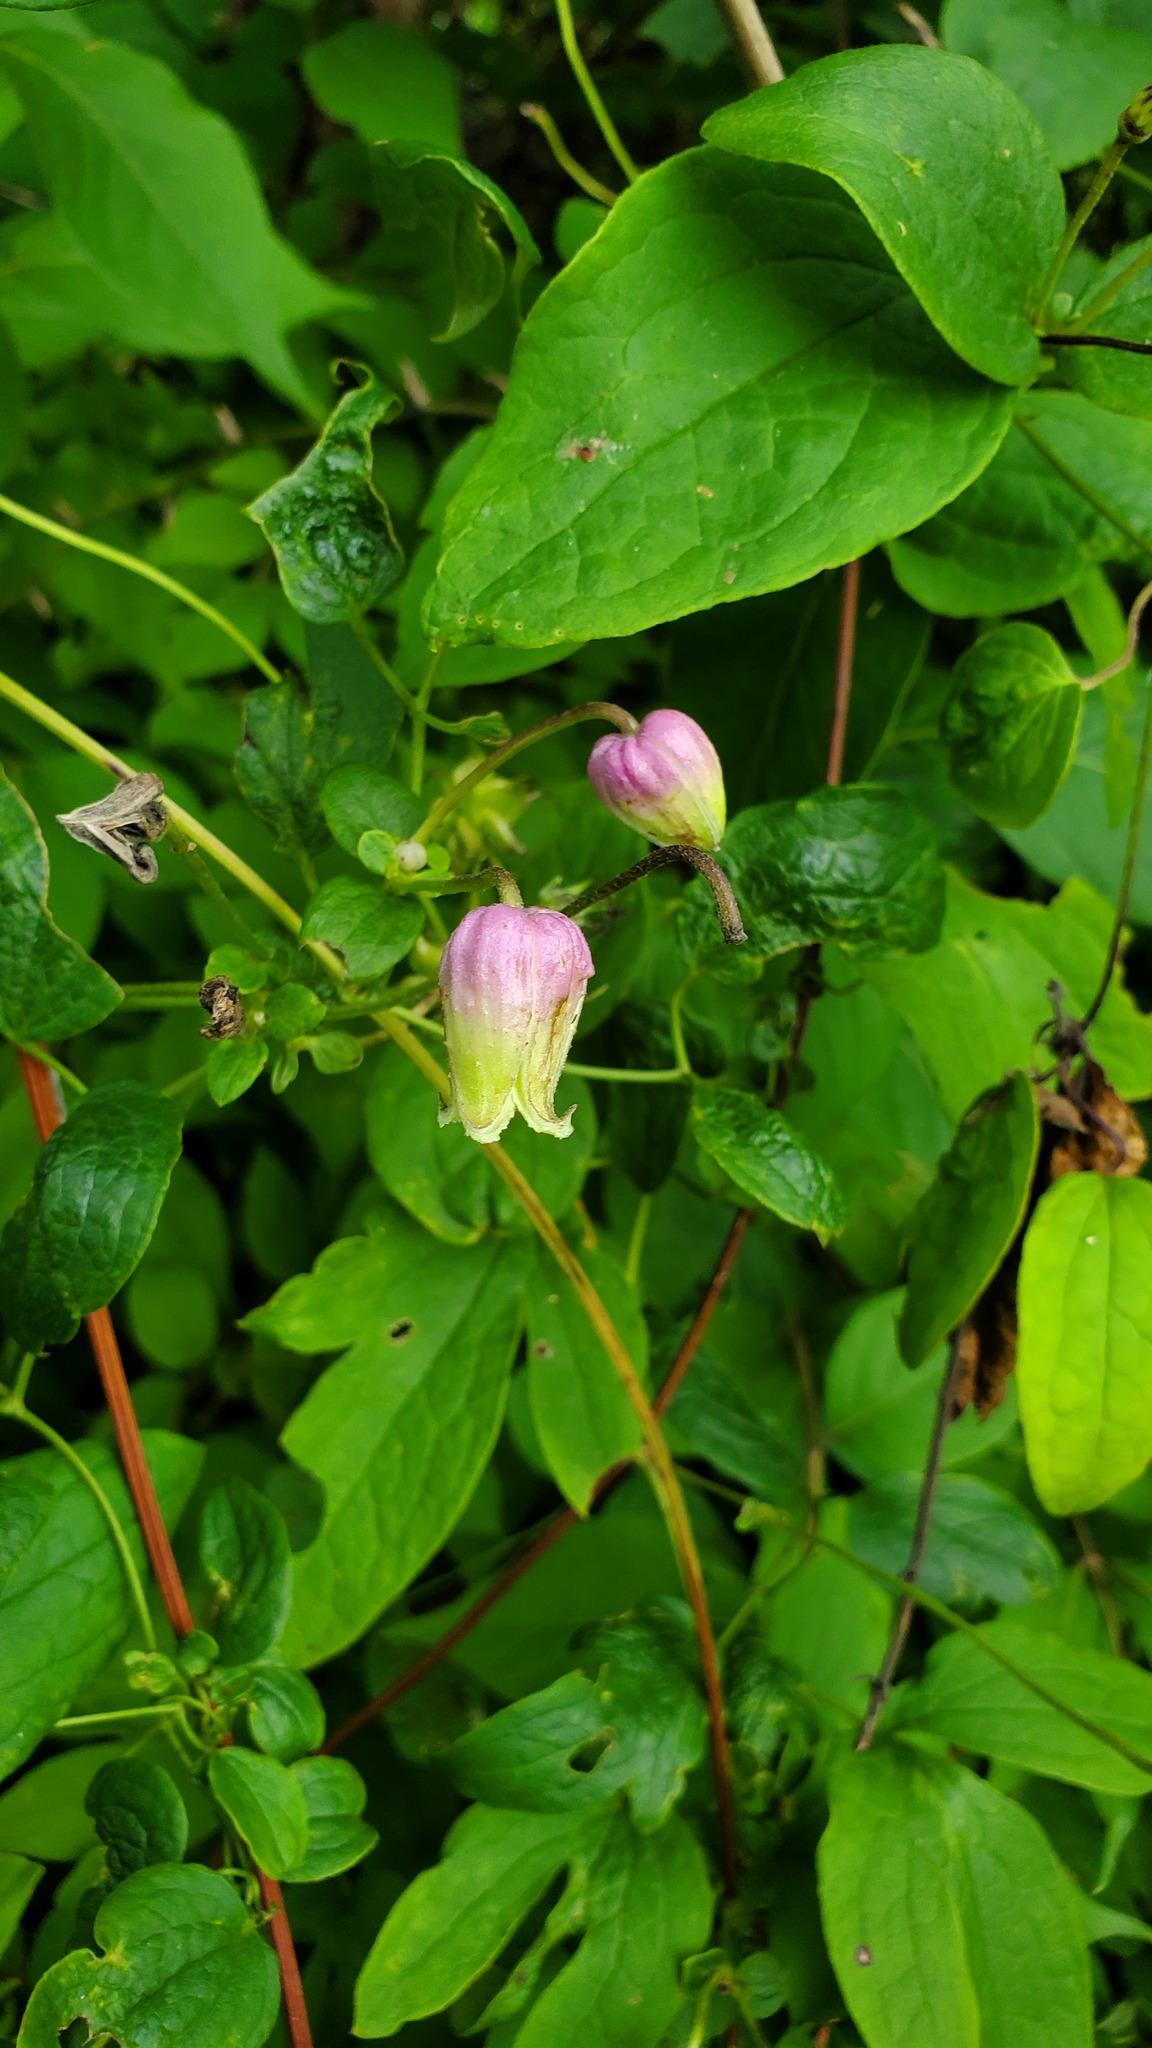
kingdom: Plantae
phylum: Tracheophyta
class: Magnoliopsida
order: Ranunculales
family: Ranunculaceae
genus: Clematis
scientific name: Clematis pitcheri
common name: Bellflower clematis
